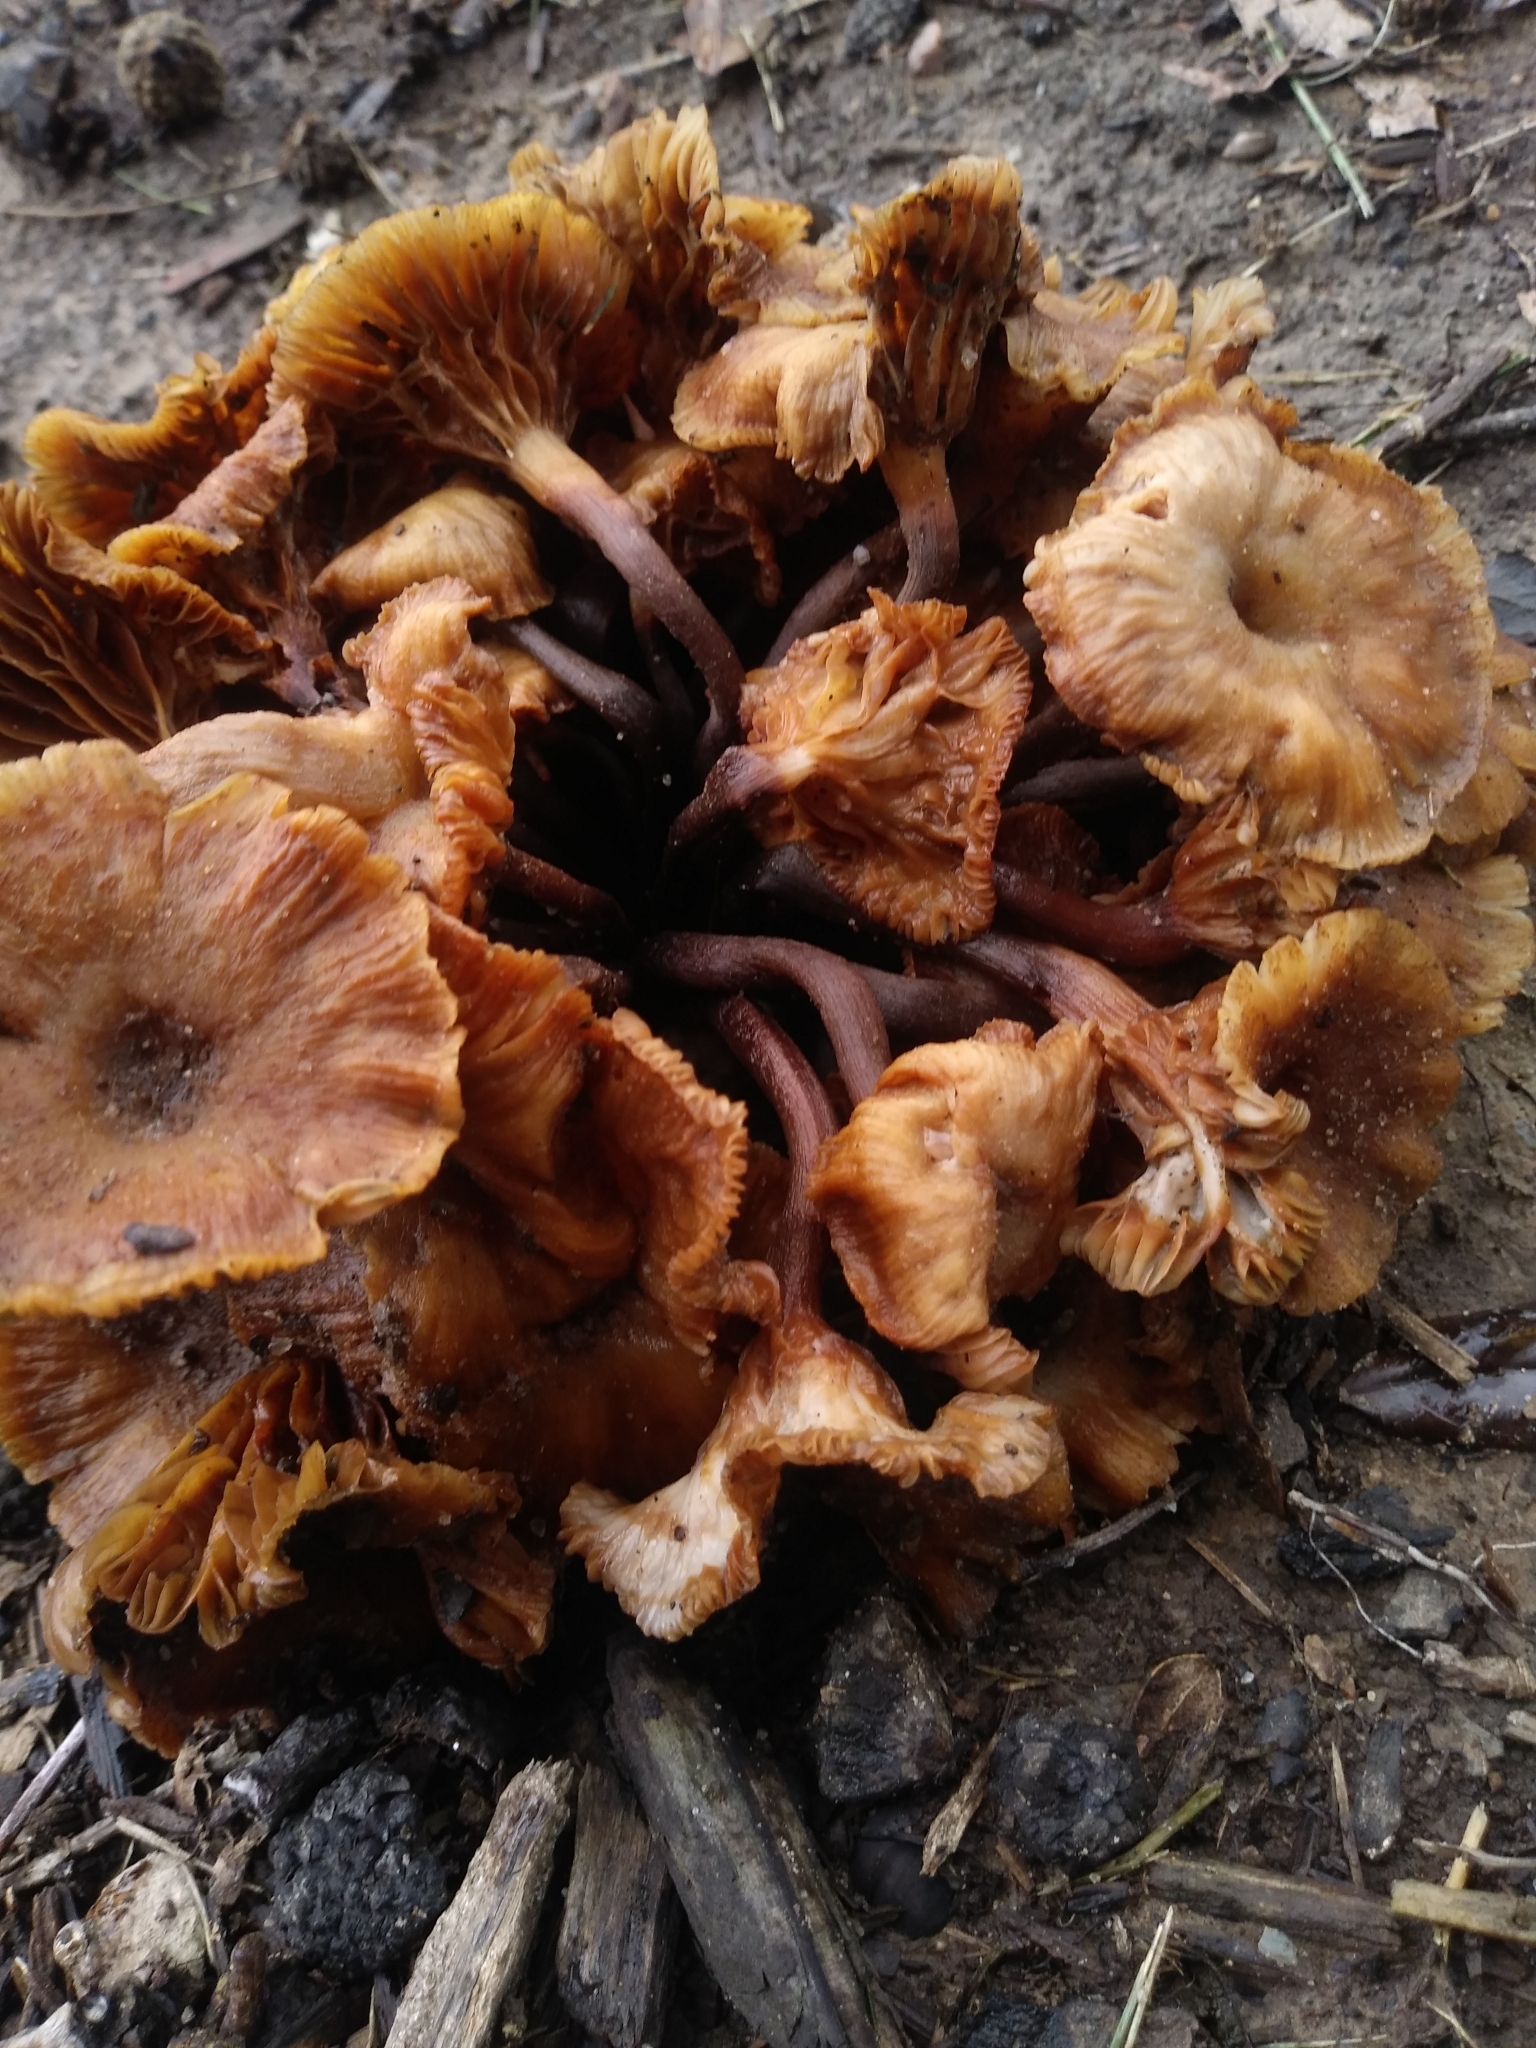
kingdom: Fungi
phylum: Basidiomycota
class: Agaricomycetes
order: Agaricales
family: Physalacriaceae
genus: Desarmillaria
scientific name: Desarmillaria caespitosa
